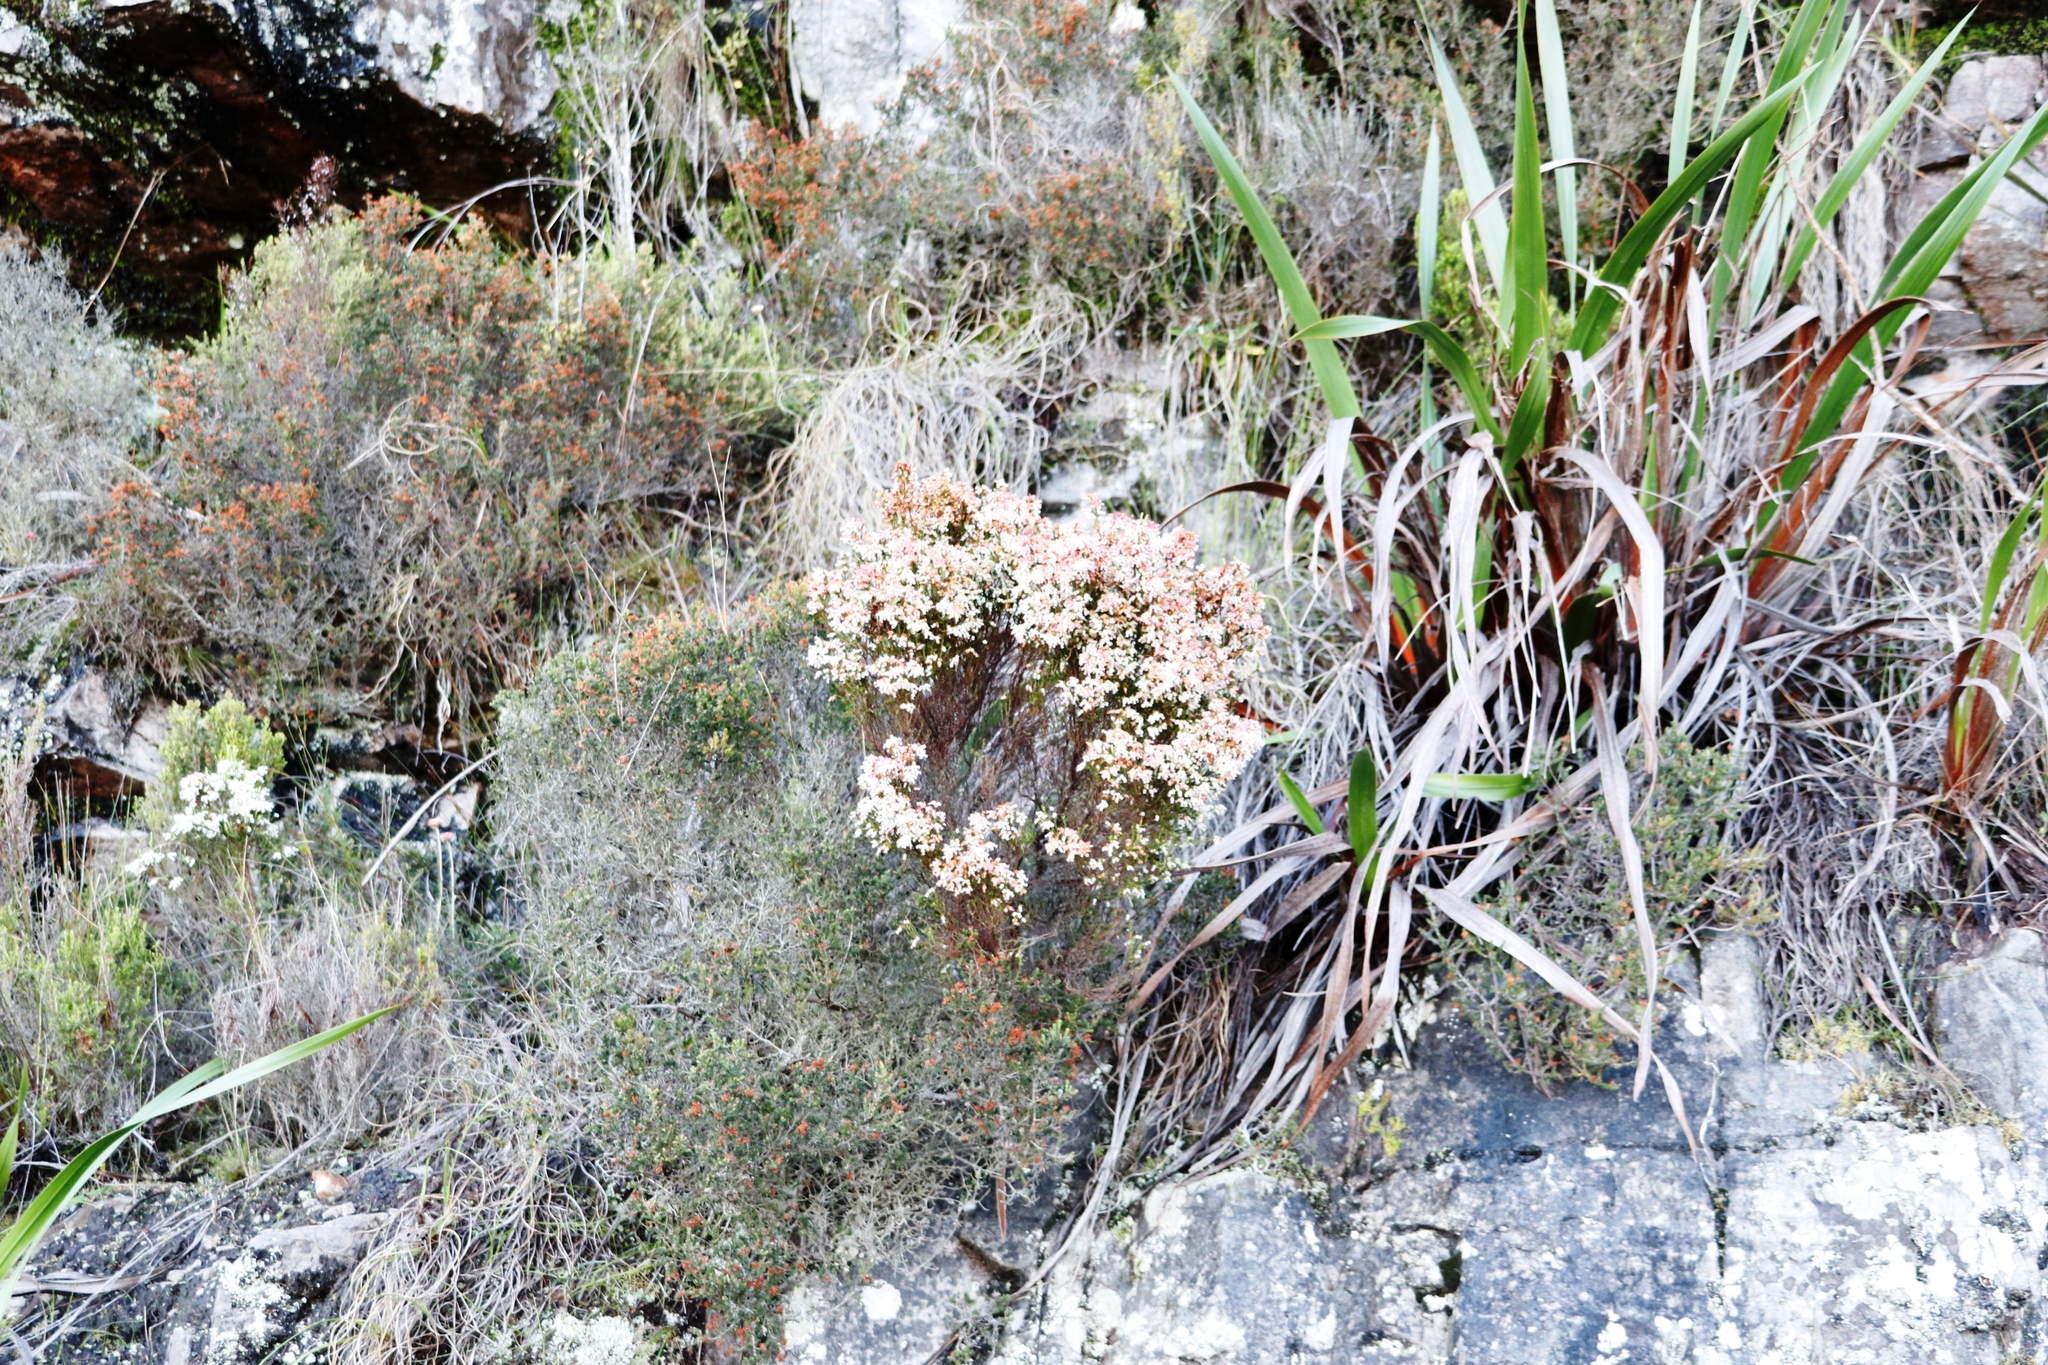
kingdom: Plantae
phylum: Tracheophyta
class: Magnoliopsida
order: Ericales
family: Ericaceae
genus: Erica
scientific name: Erica lutea
